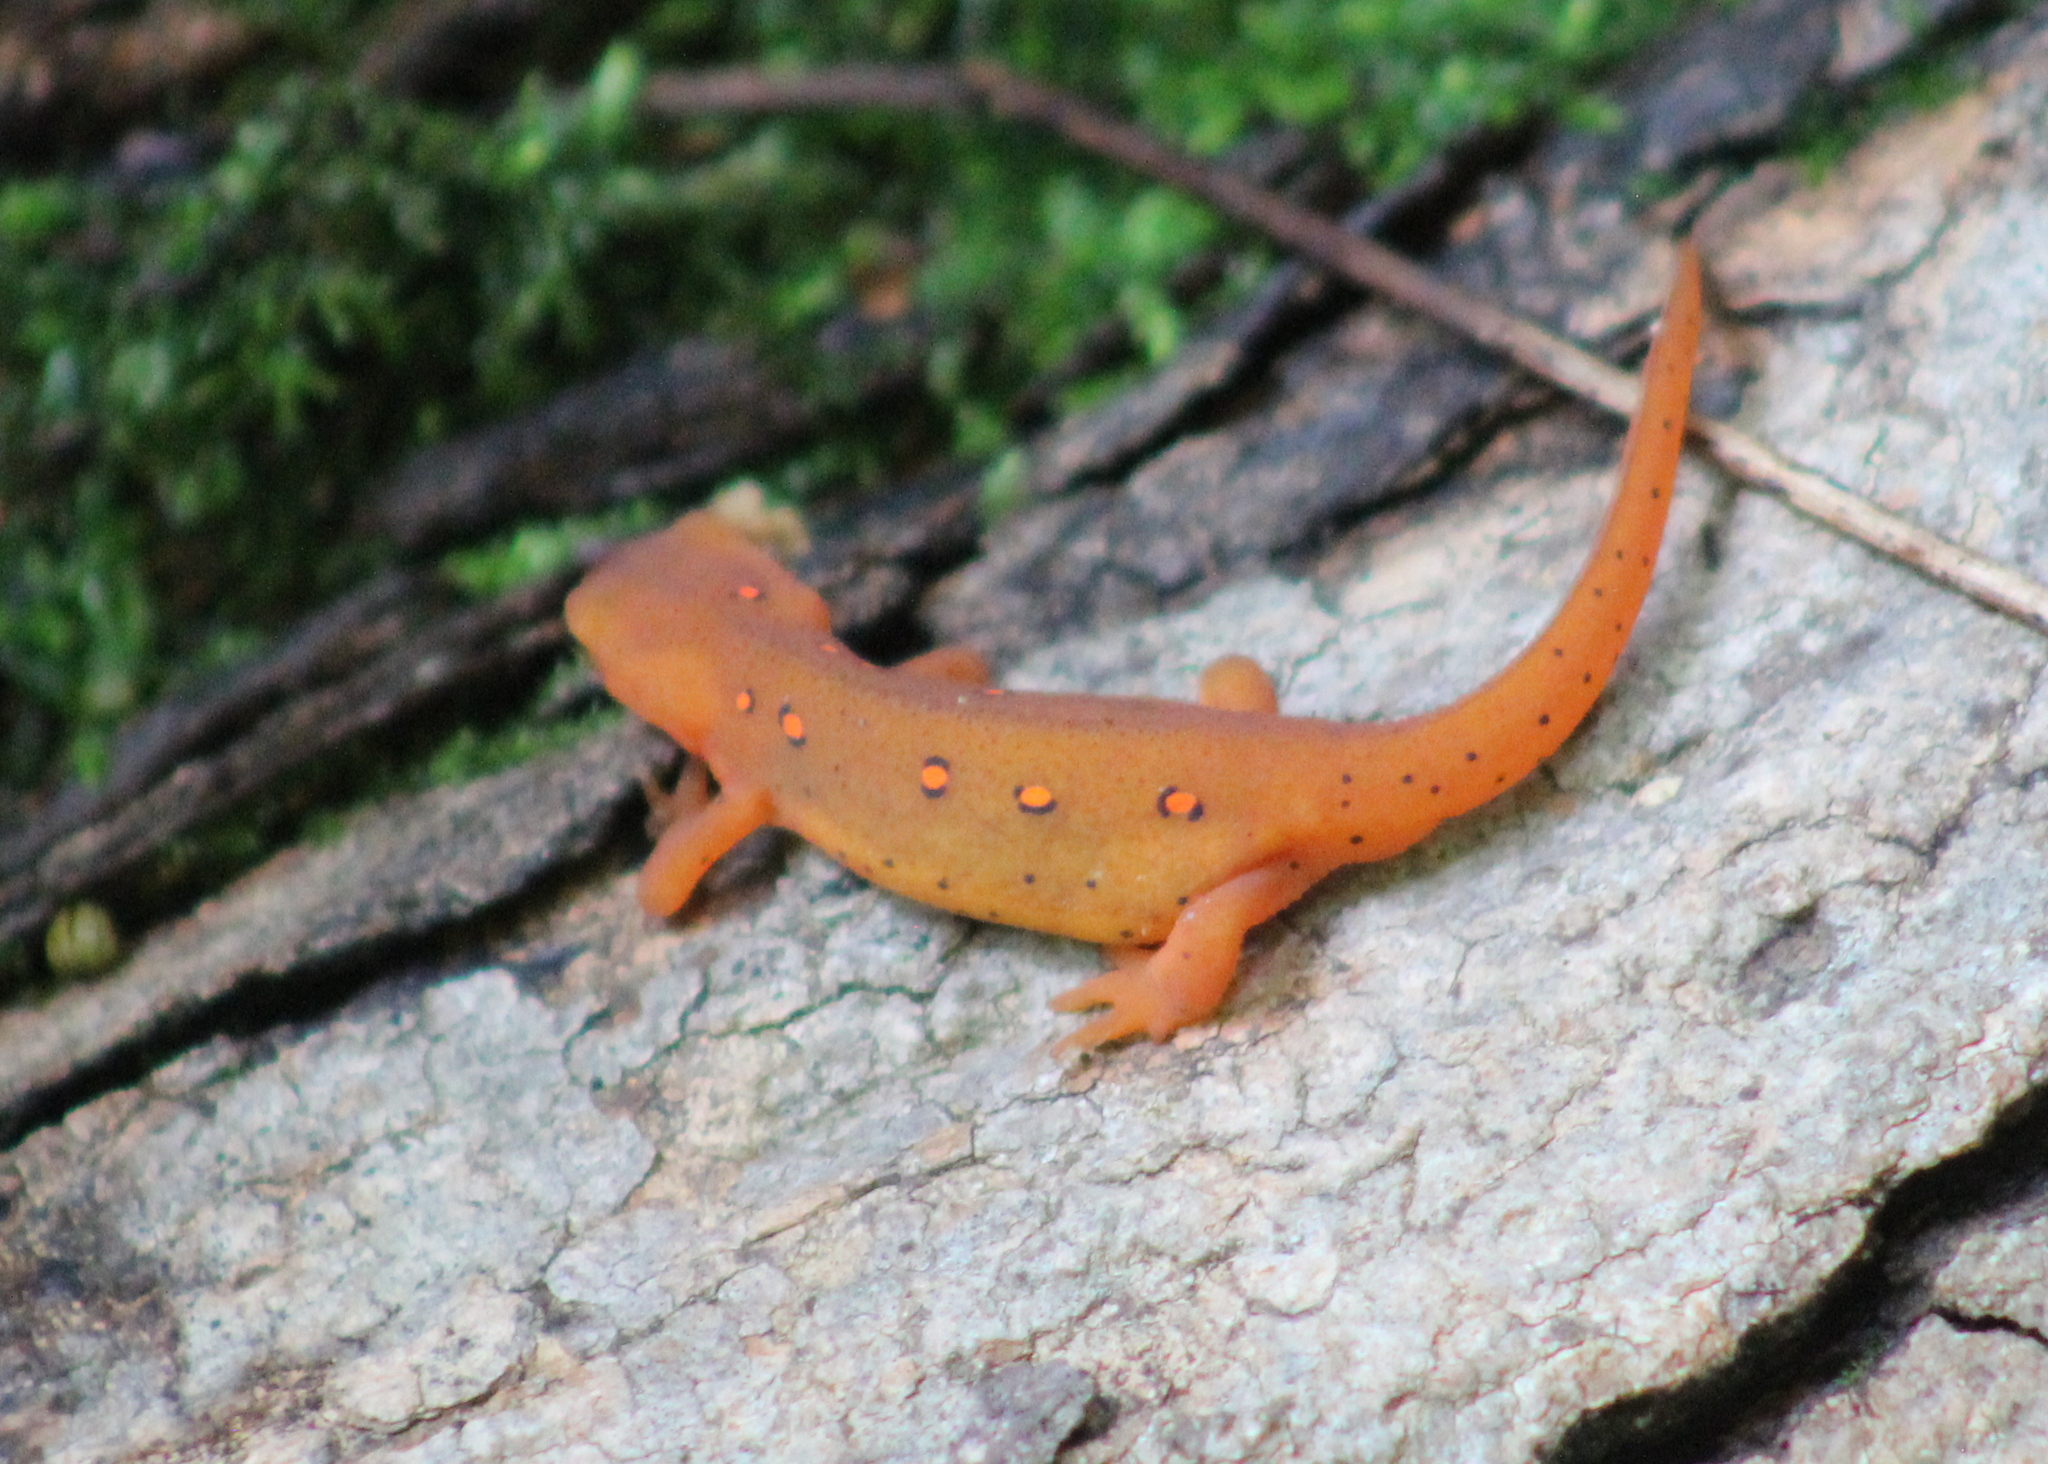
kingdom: Animalia
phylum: Chordata
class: Amphibia
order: Caudata
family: Salamandridae
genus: Notophthalmus
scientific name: Notophthalmus viridescens
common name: Eastern newt
